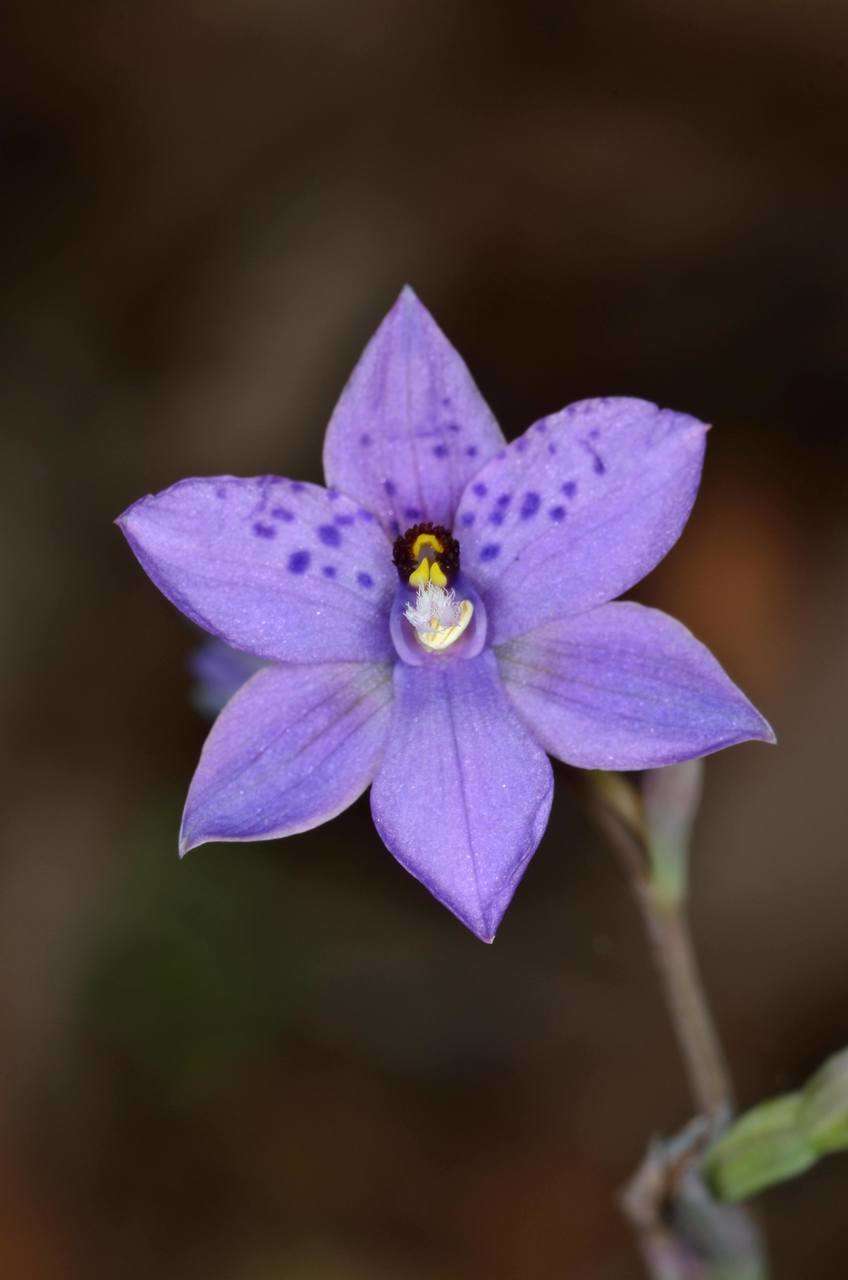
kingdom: Plantae
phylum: Tracheophyta
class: Liliopsida
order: Asparagales
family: Orchidaceae
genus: Thelymitra
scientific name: Thelymitra ixioides
